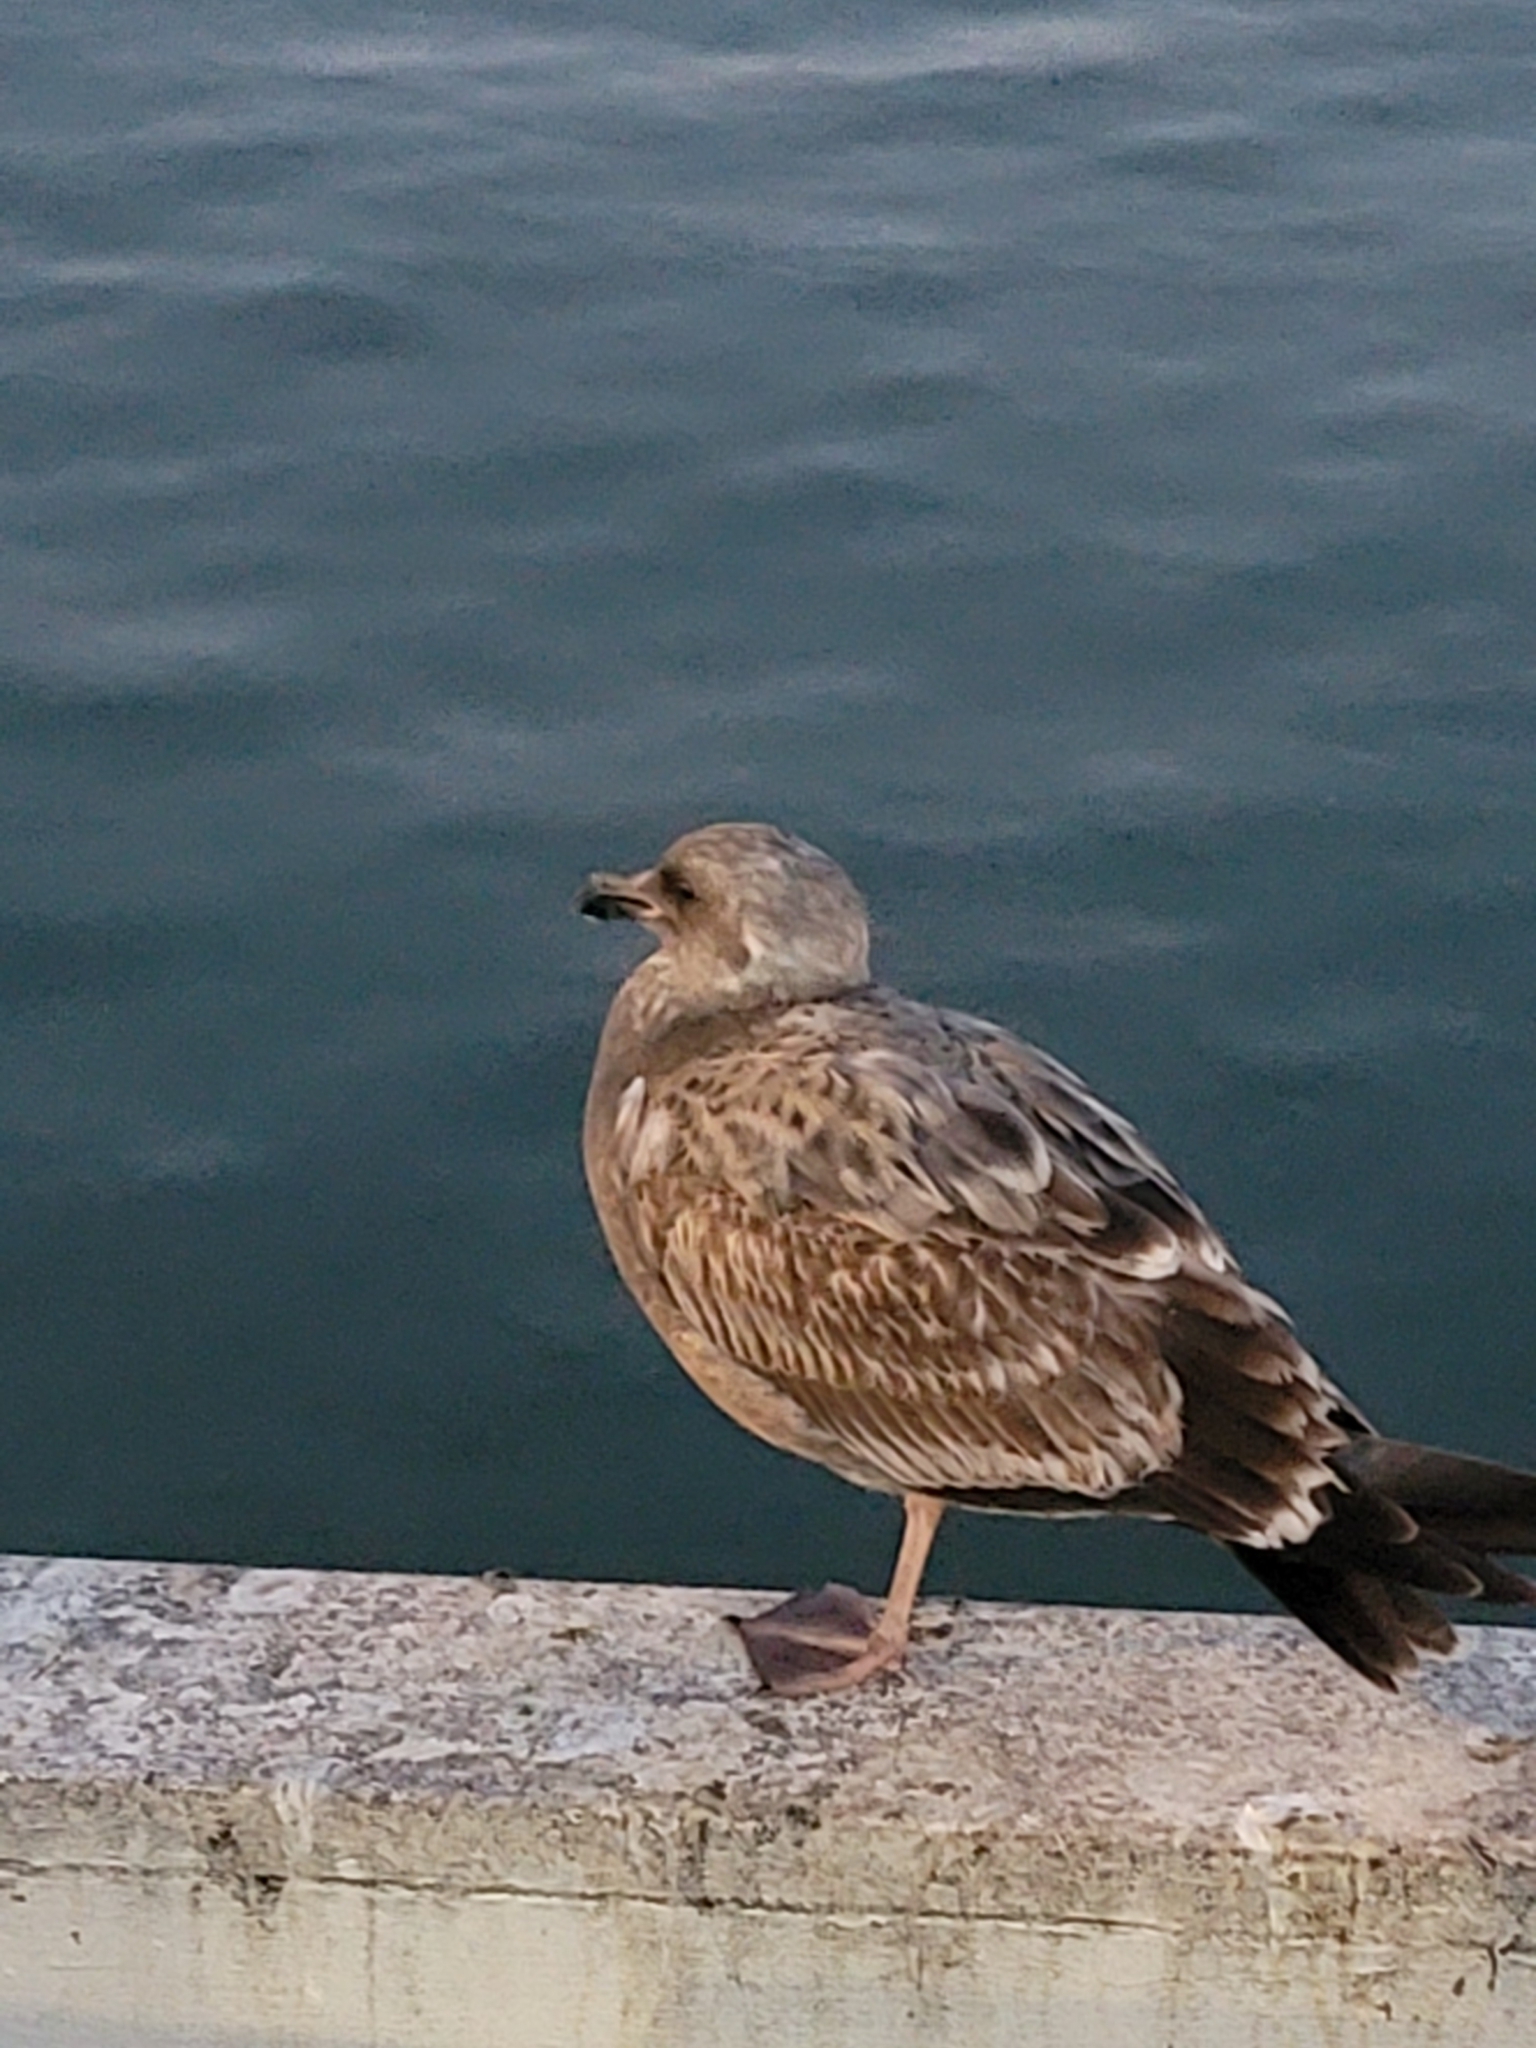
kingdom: Animalia
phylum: Chordata
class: Aves
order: Charadriiformes
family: Laridae
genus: Larus
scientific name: Larus occidentalis
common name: Western gull
